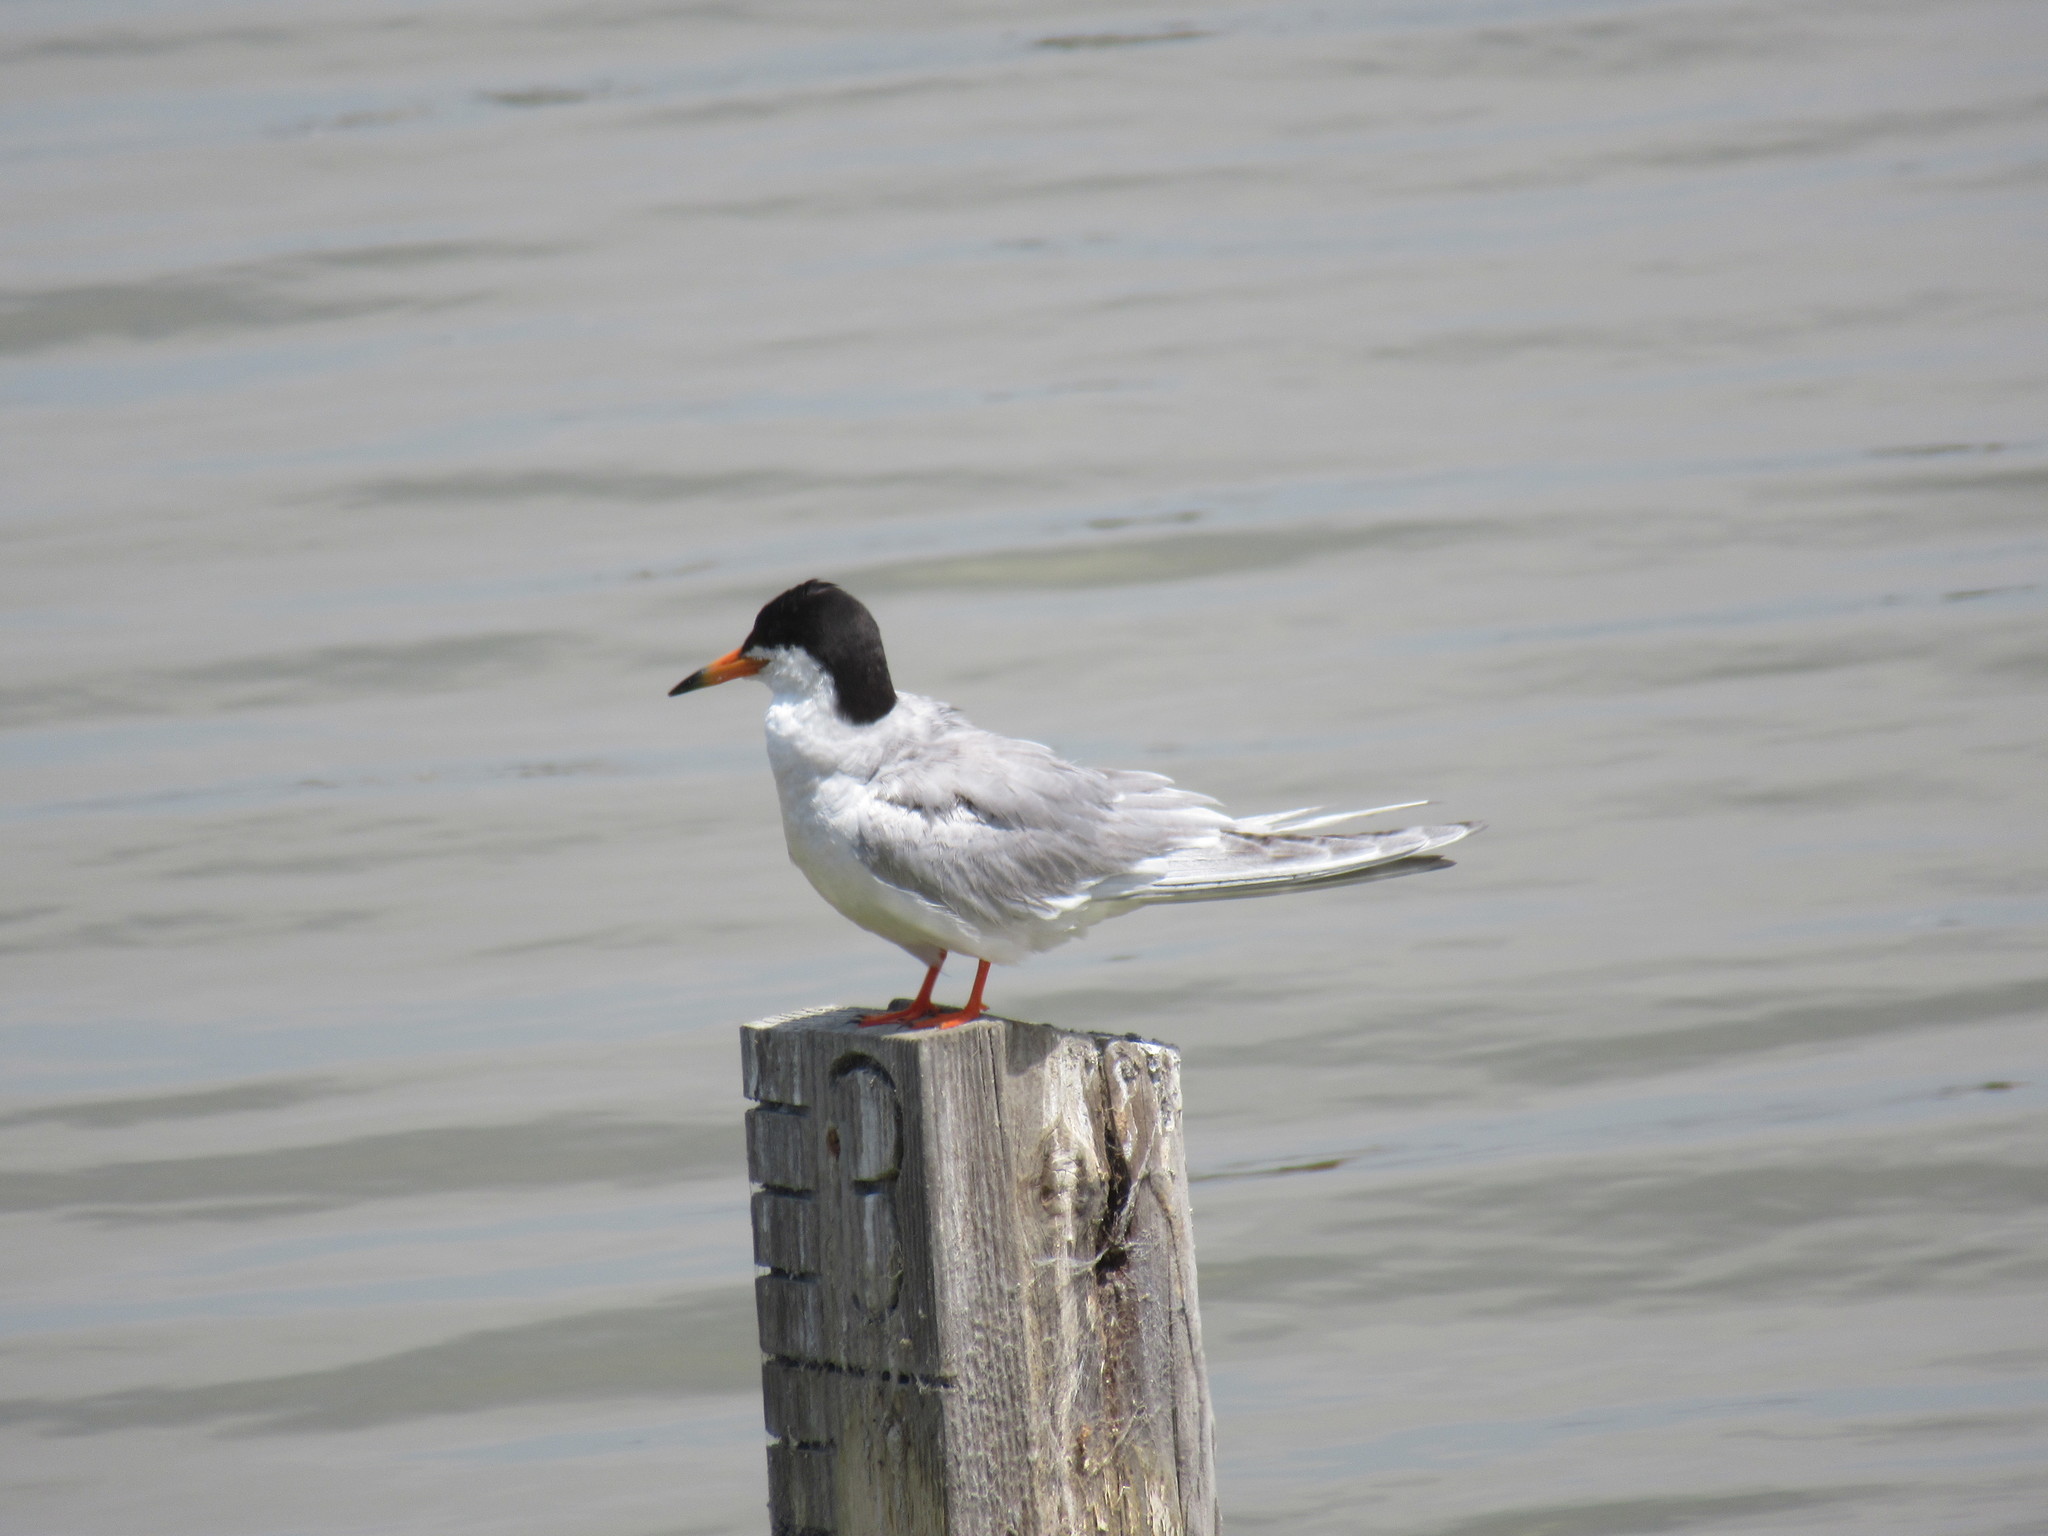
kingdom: Animalia
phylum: Chordata
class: Aves
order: Charadriiformes
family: Laridae
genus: Sterna
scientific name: Sterna forsteri
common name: Forster's tern
